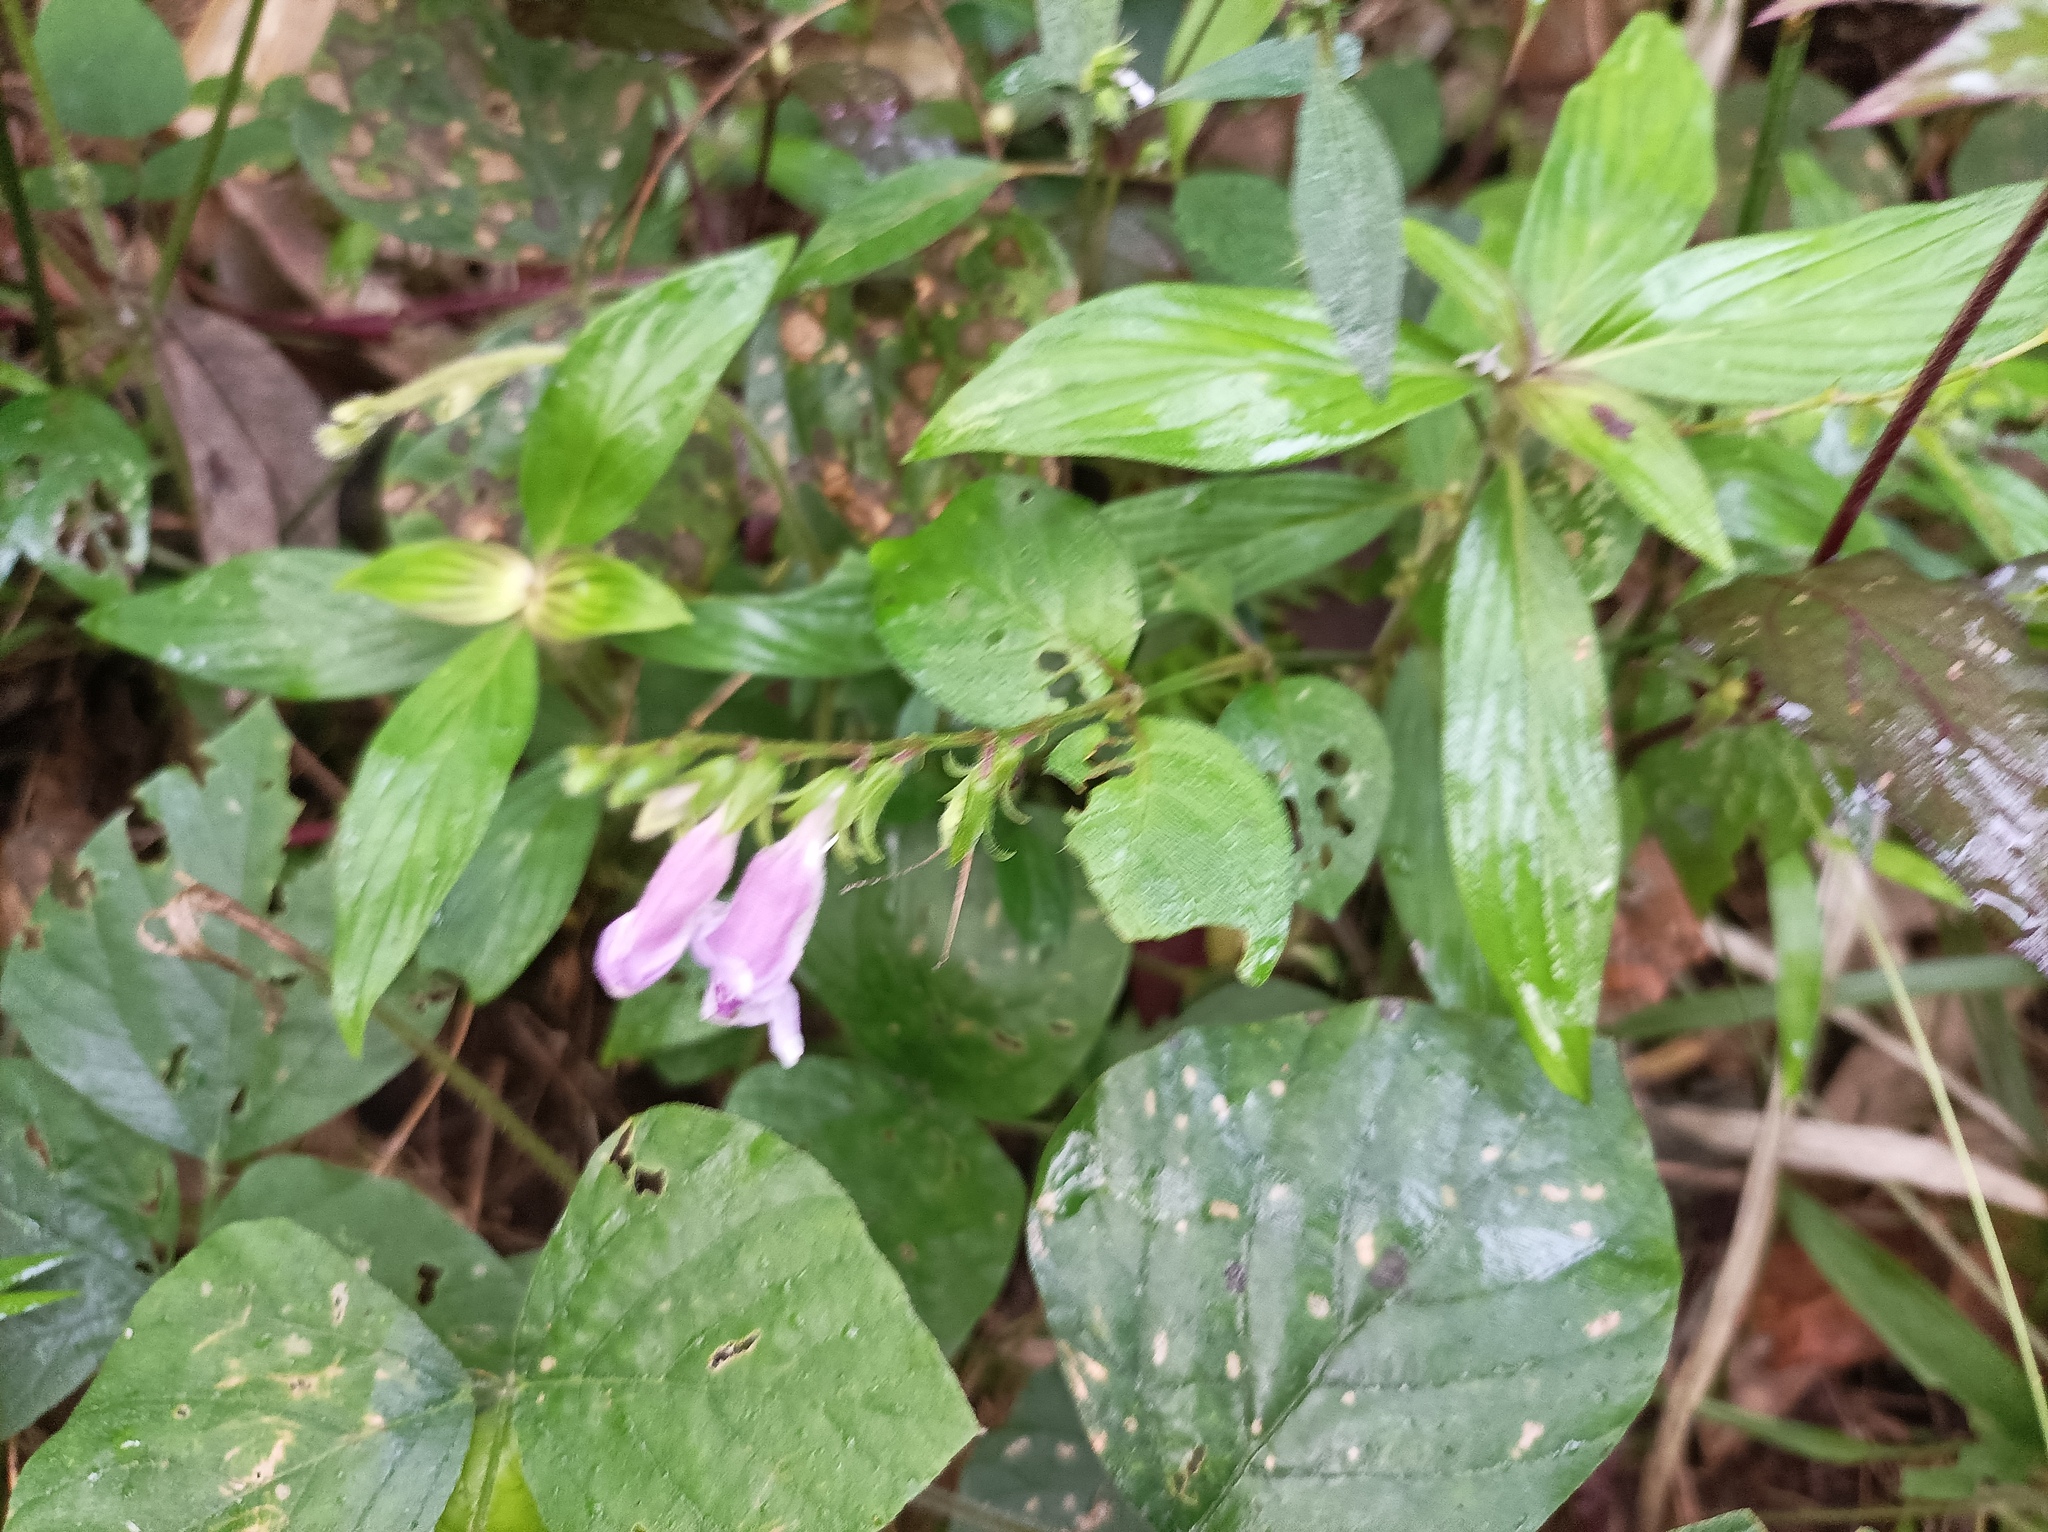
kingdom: Plantae
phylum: Tracheophyta
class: Magnoliopsida
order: Lamiales
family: Acanthaceae
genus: Asystasia
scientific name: Asystasia dalzelliana
